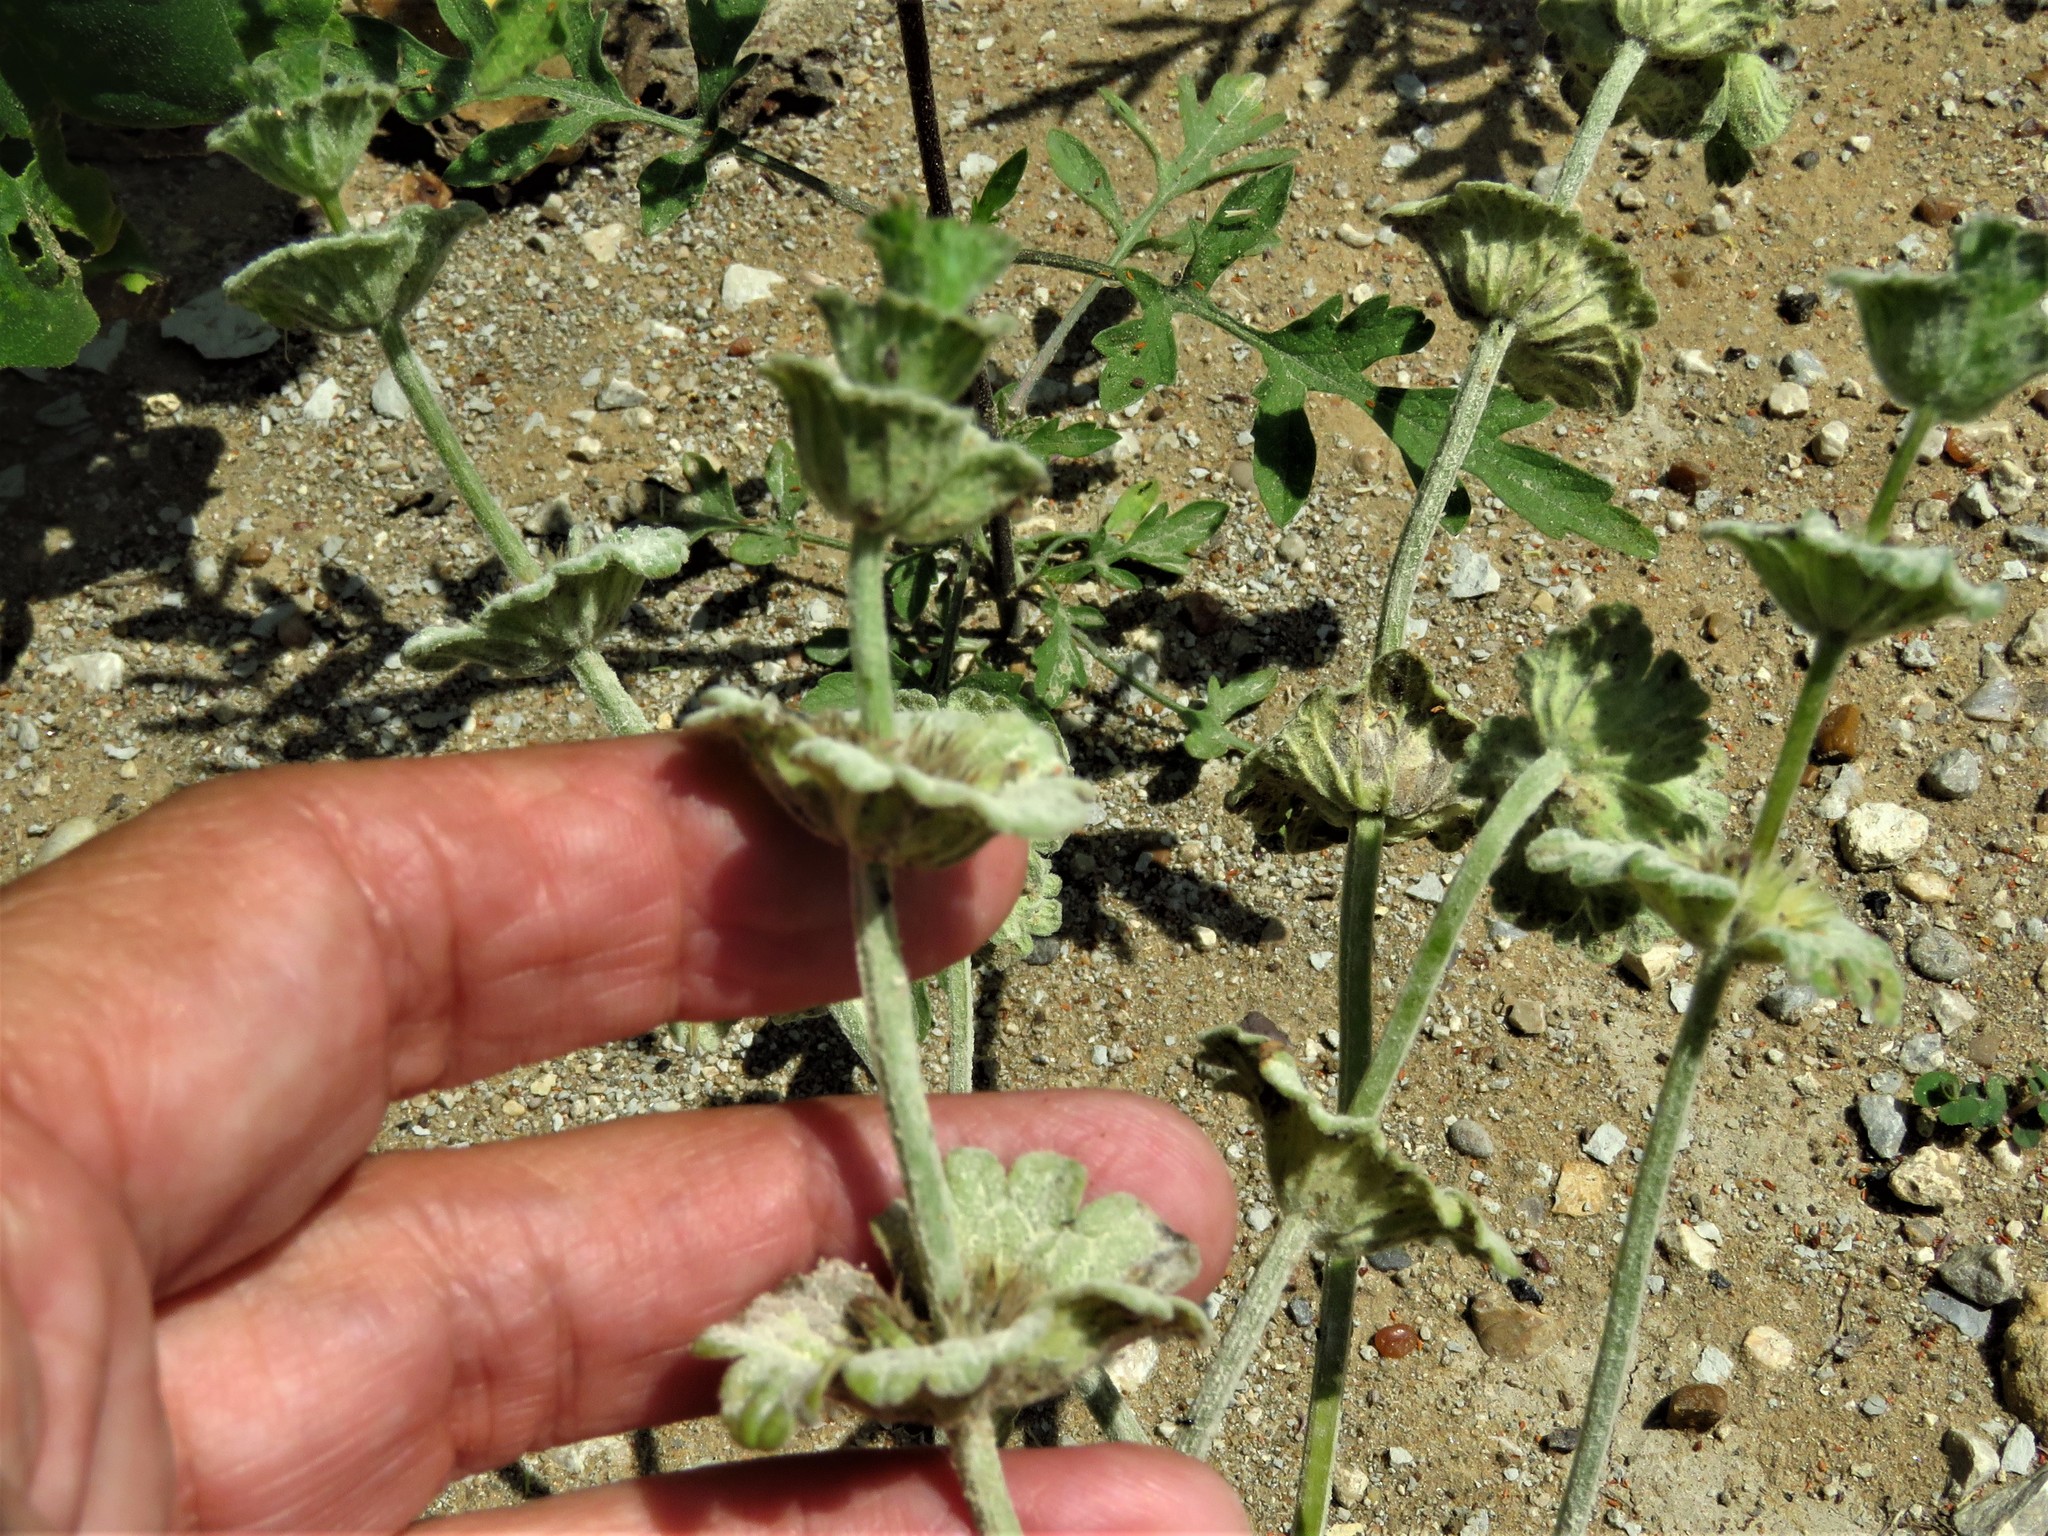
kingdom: Plantae
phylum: Tracheophyta
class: Magnoliopsida
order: Lamiales
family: Lamiaceae
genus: Lamium
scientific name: Lamium amplexicaule
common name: Henbit dead-nettle
